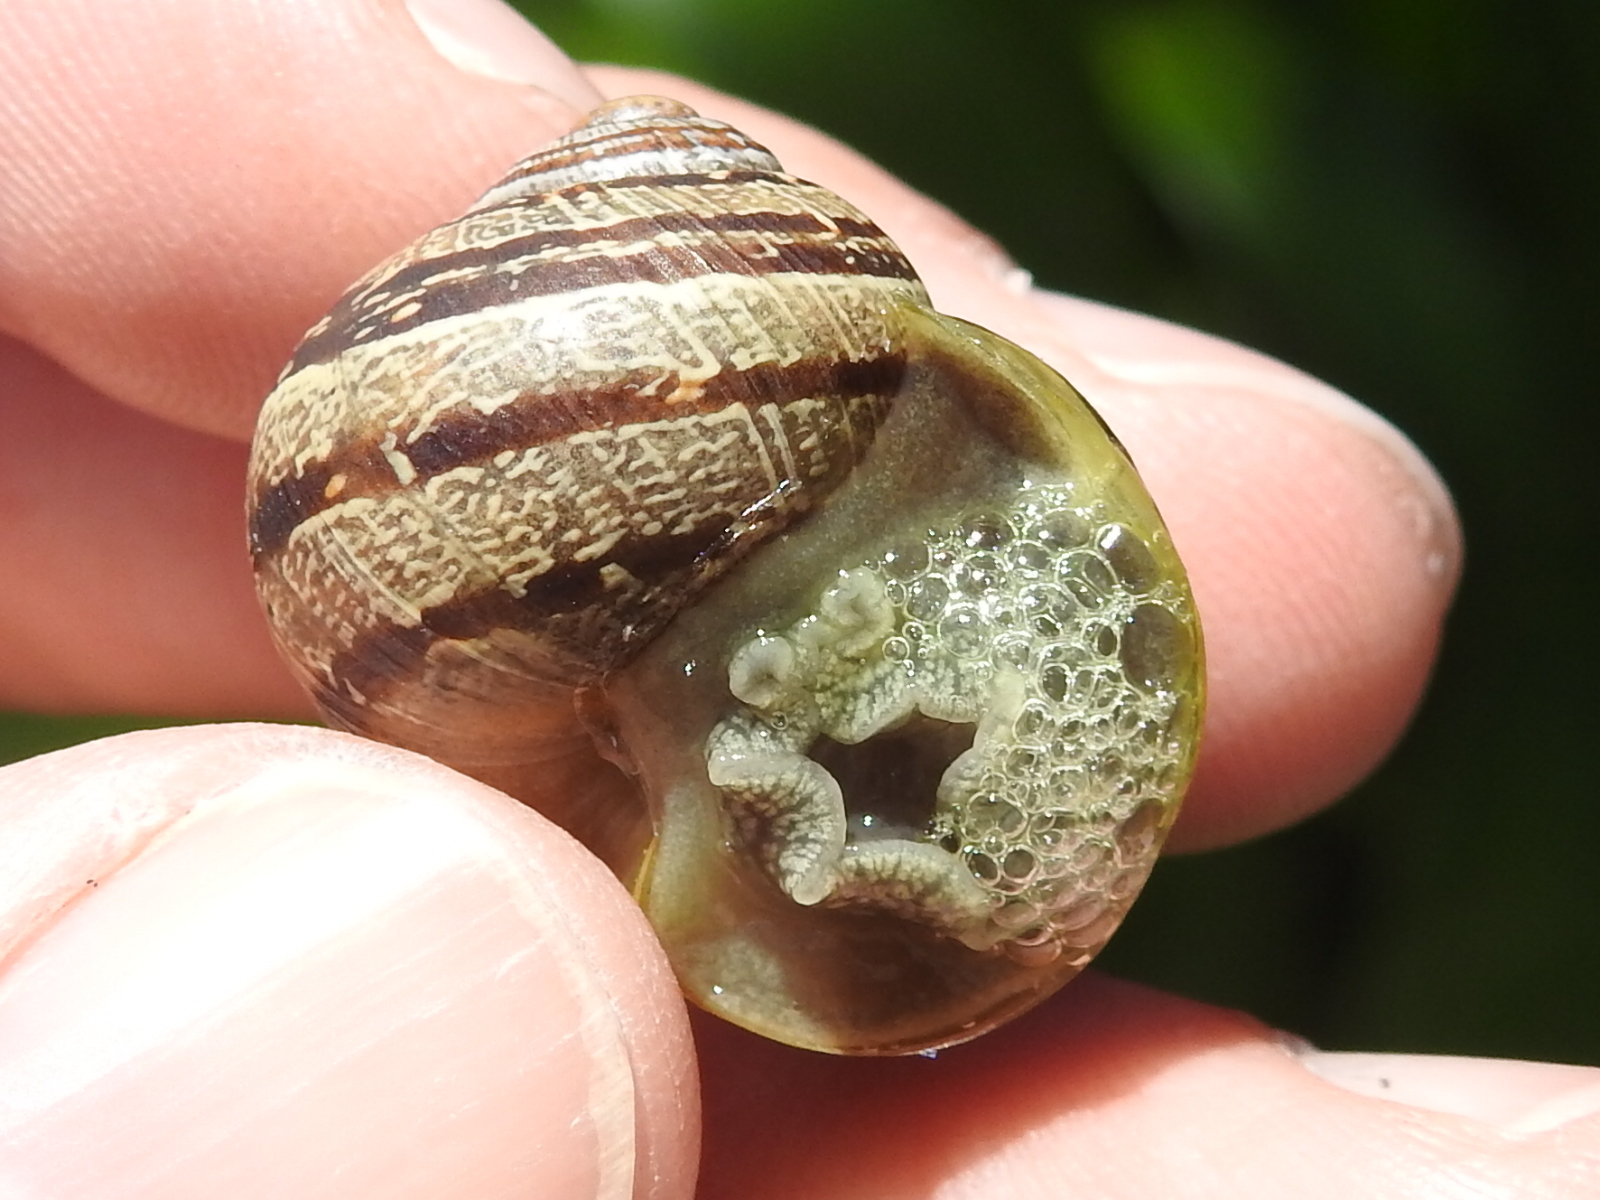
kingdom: Animalia
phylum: Mollusca
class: Gastropoda
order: Stylommatophora
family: Helicidae
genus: Cornu
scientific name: Cornu aspersum
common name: Brown garden snail
